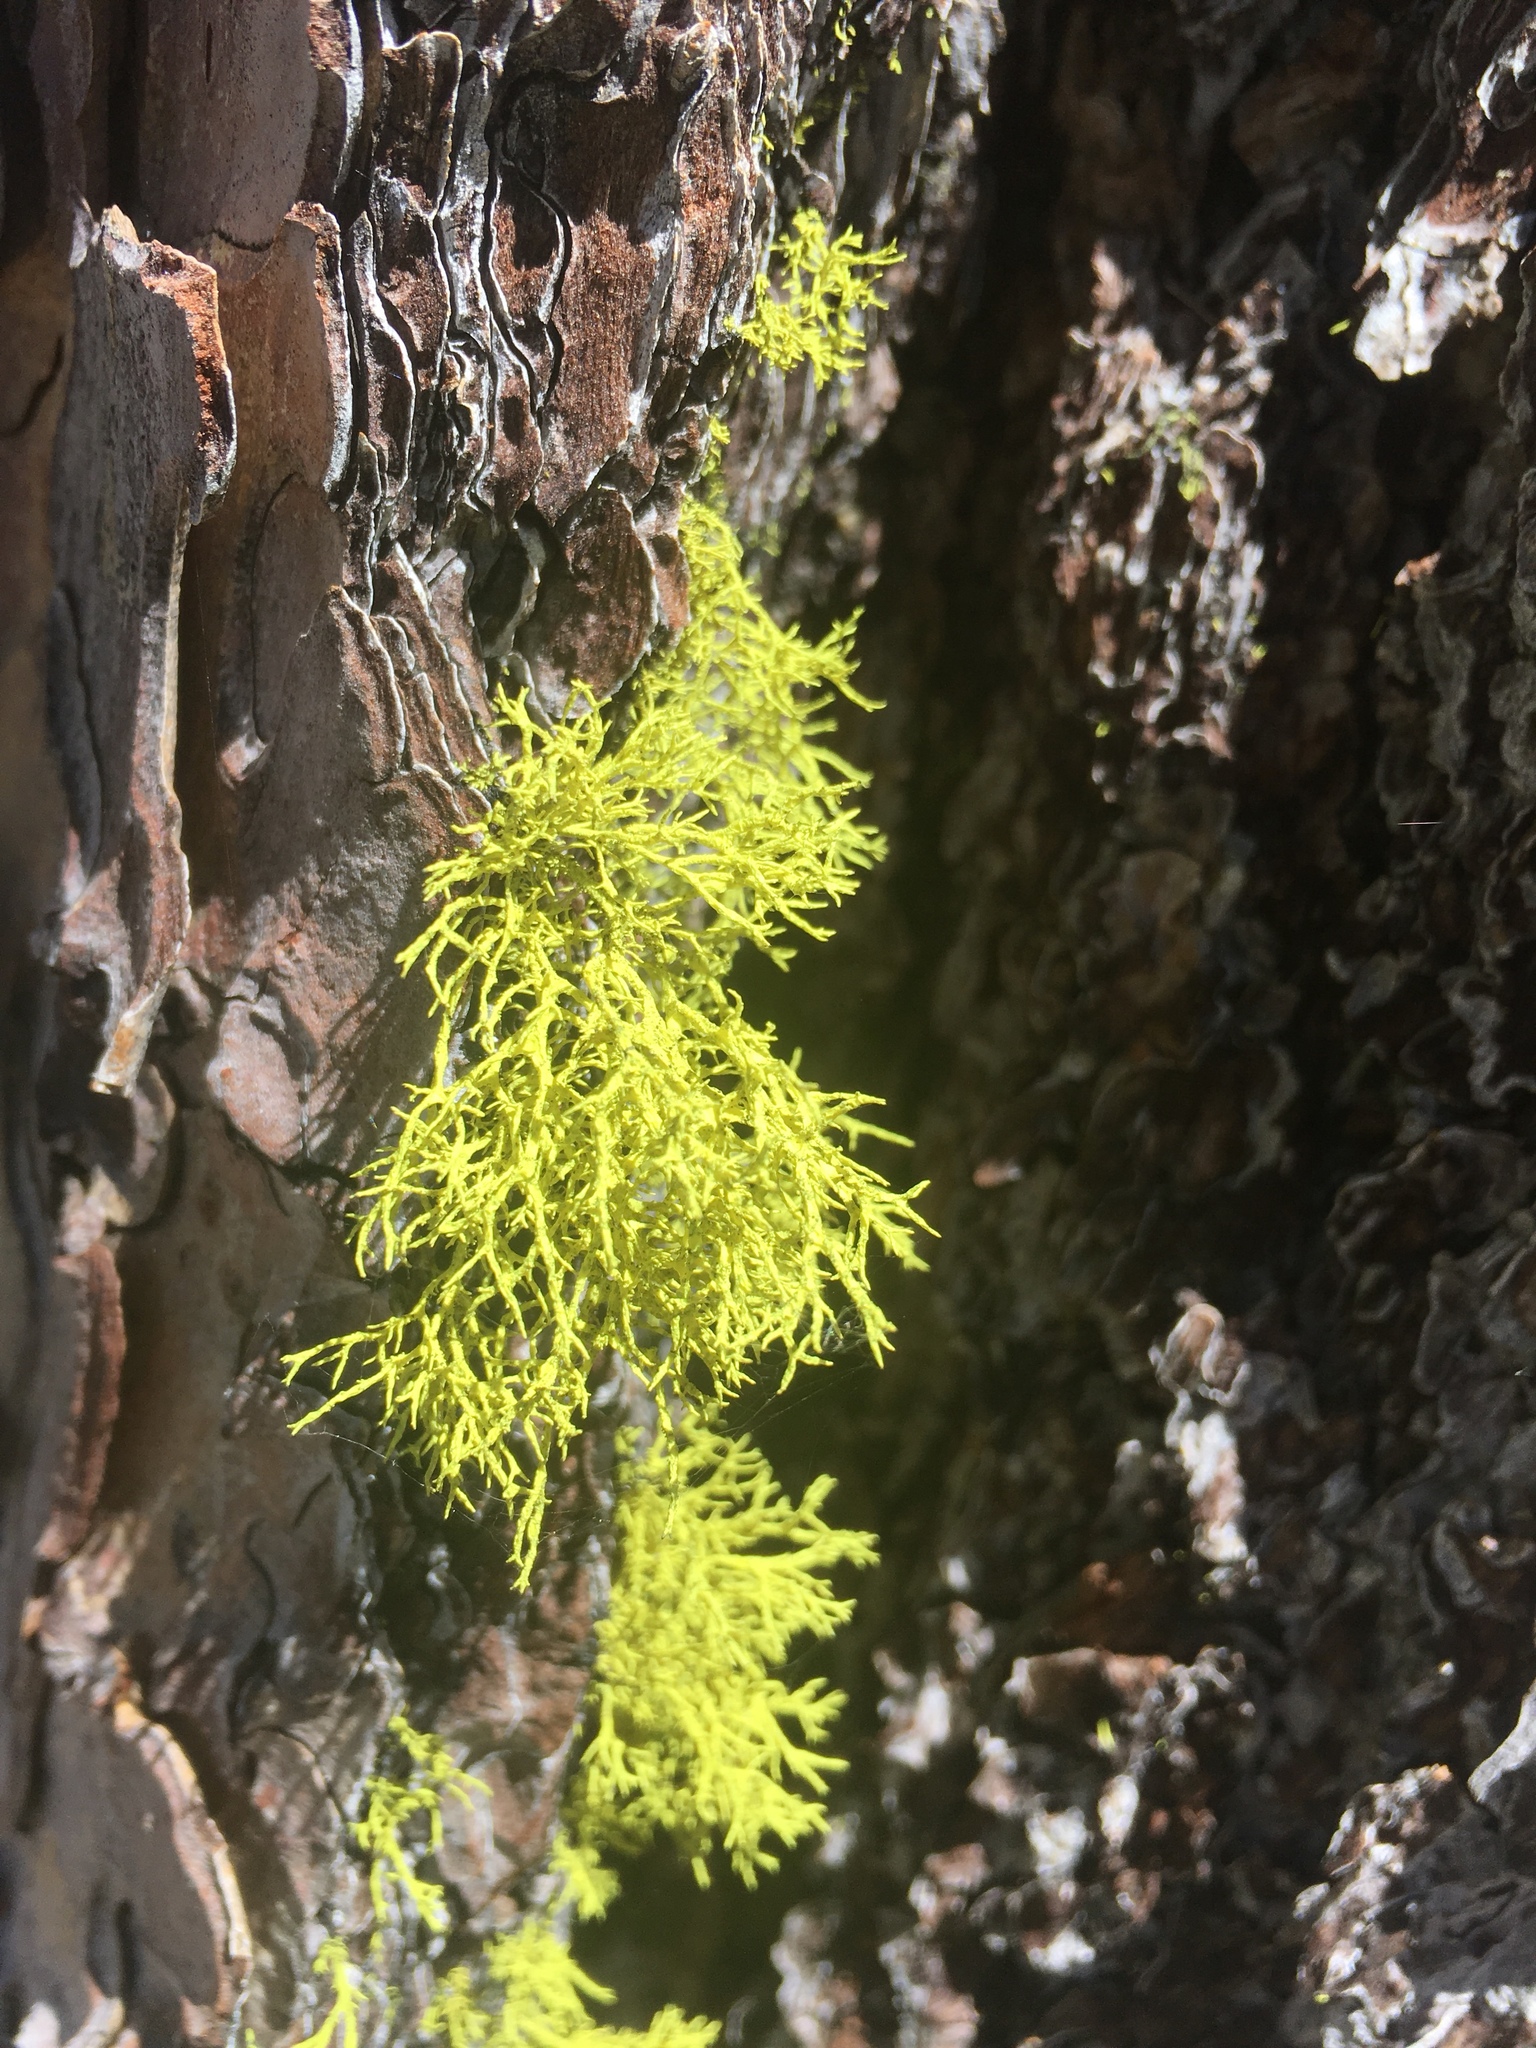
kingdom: Fungi
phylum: Ascomycota
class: Lecanoromycetes
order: Lecanorales
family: Parmeliaceae
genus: Letharia
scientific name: Letharia vulpina
